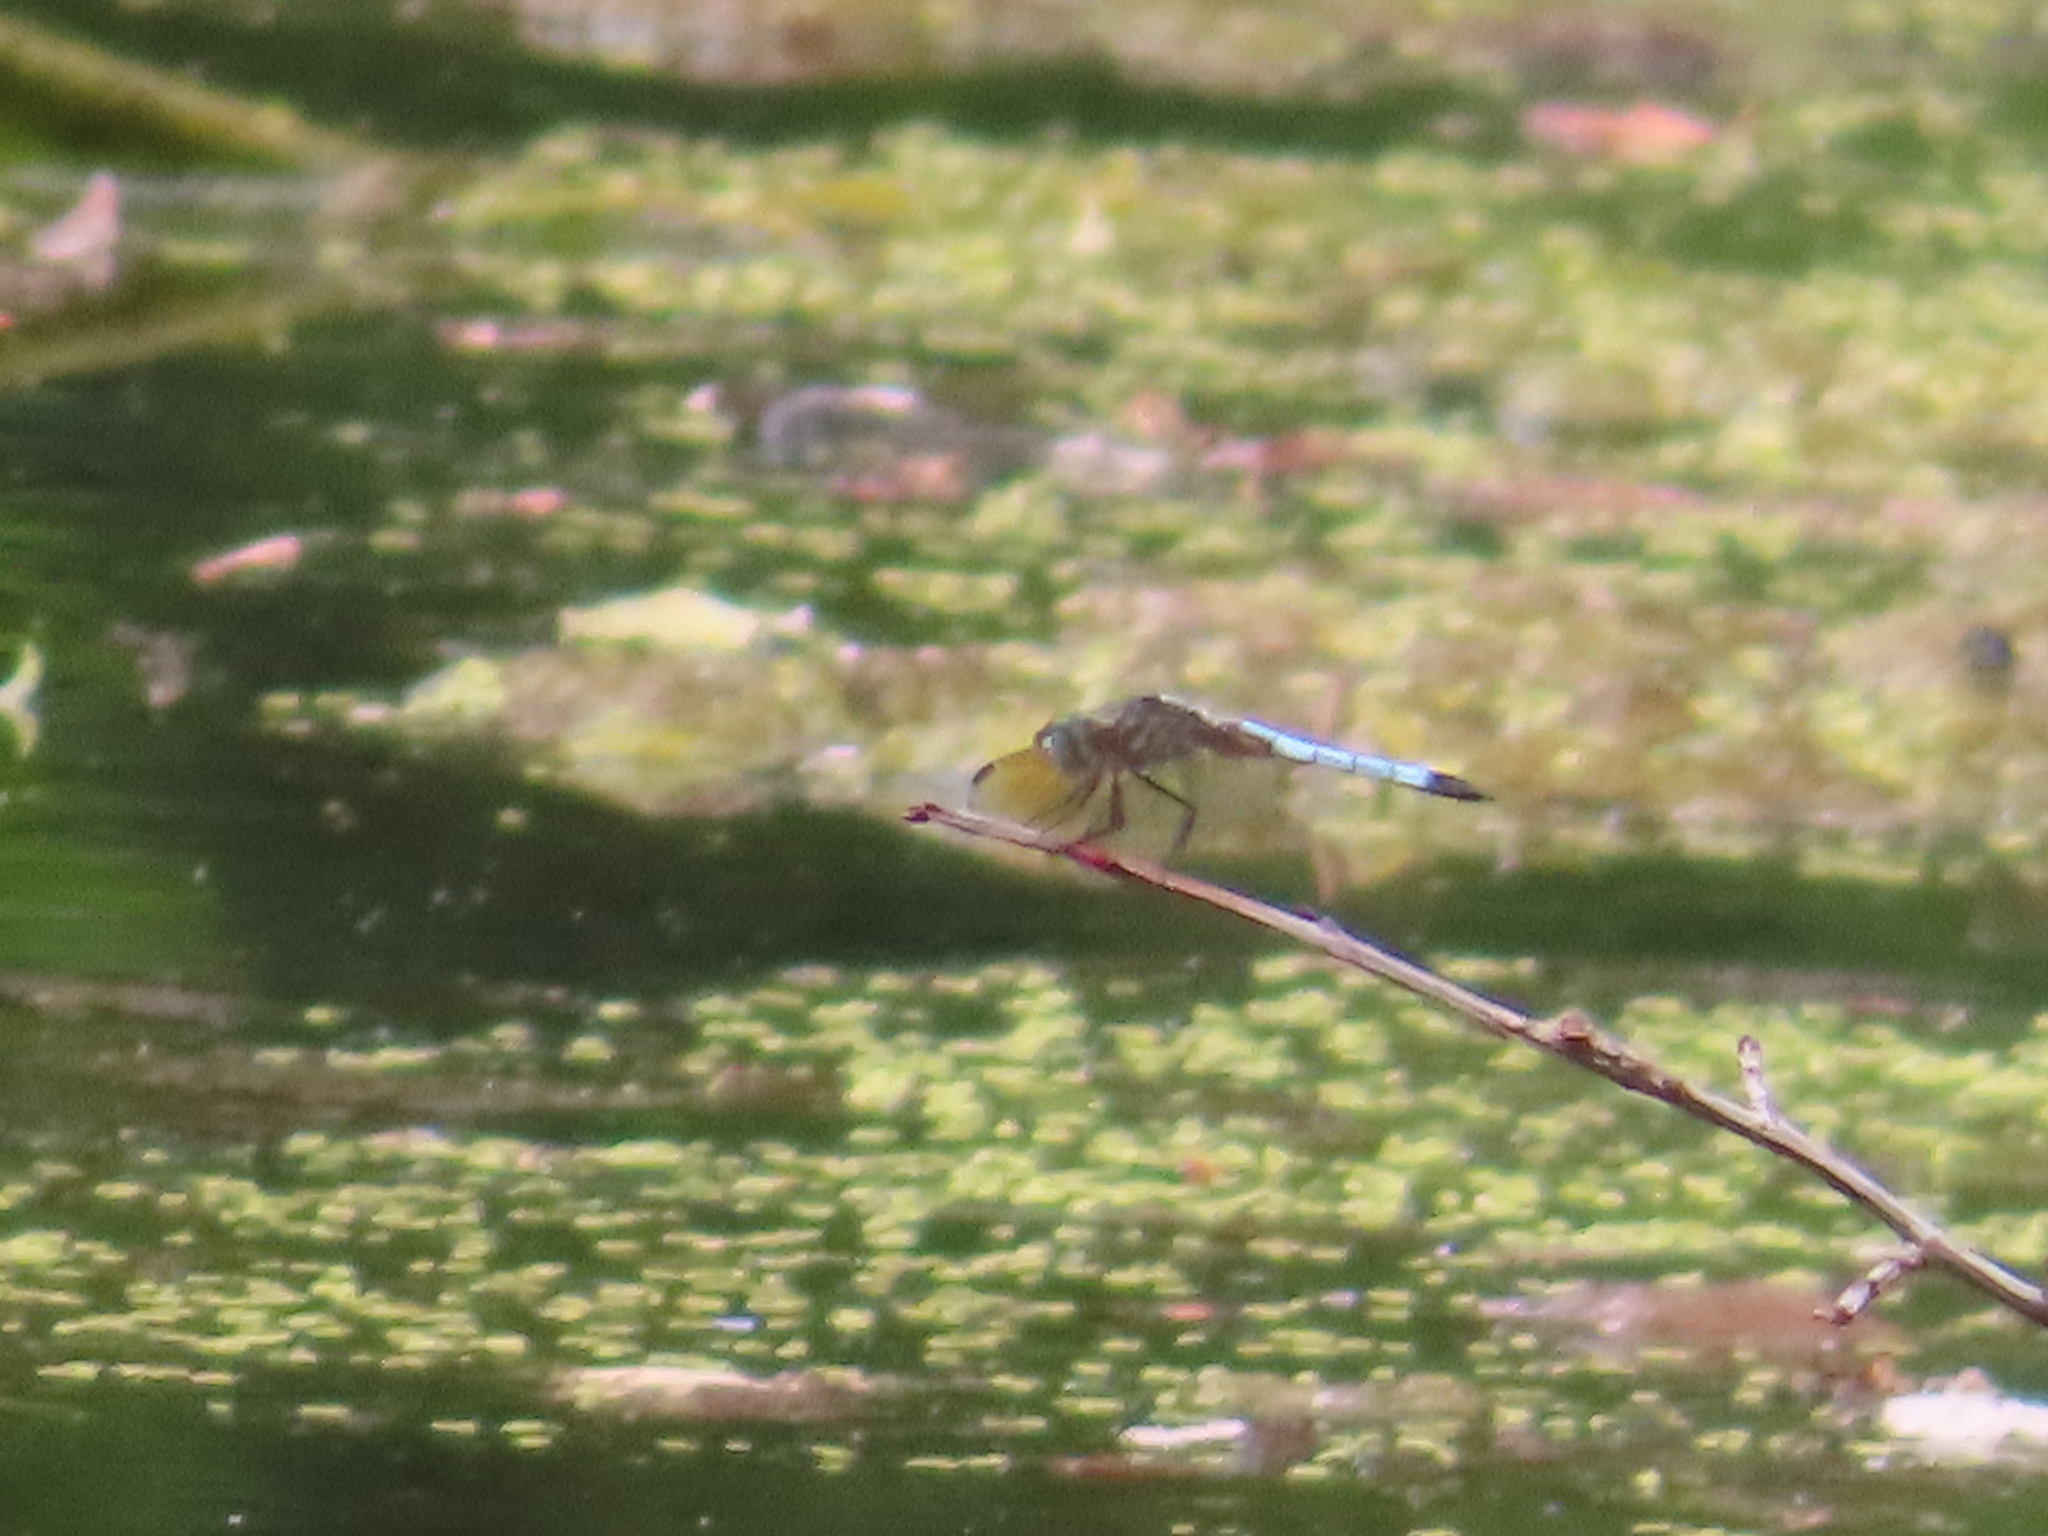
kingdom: Animalia
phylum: Arthropoda
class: Insecta
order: Odonata
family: Libellulidae
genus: Pachydiplax
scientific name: Pachydiplax longipennis
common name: Blue dasher
